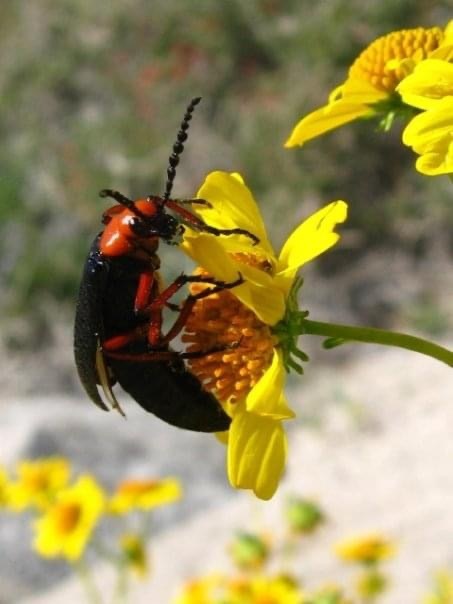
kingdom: Animalia
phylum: Arthropoda
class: Insecta
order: Coleoptera
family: Meloidae
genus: Lytta
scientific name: Lytta magister
